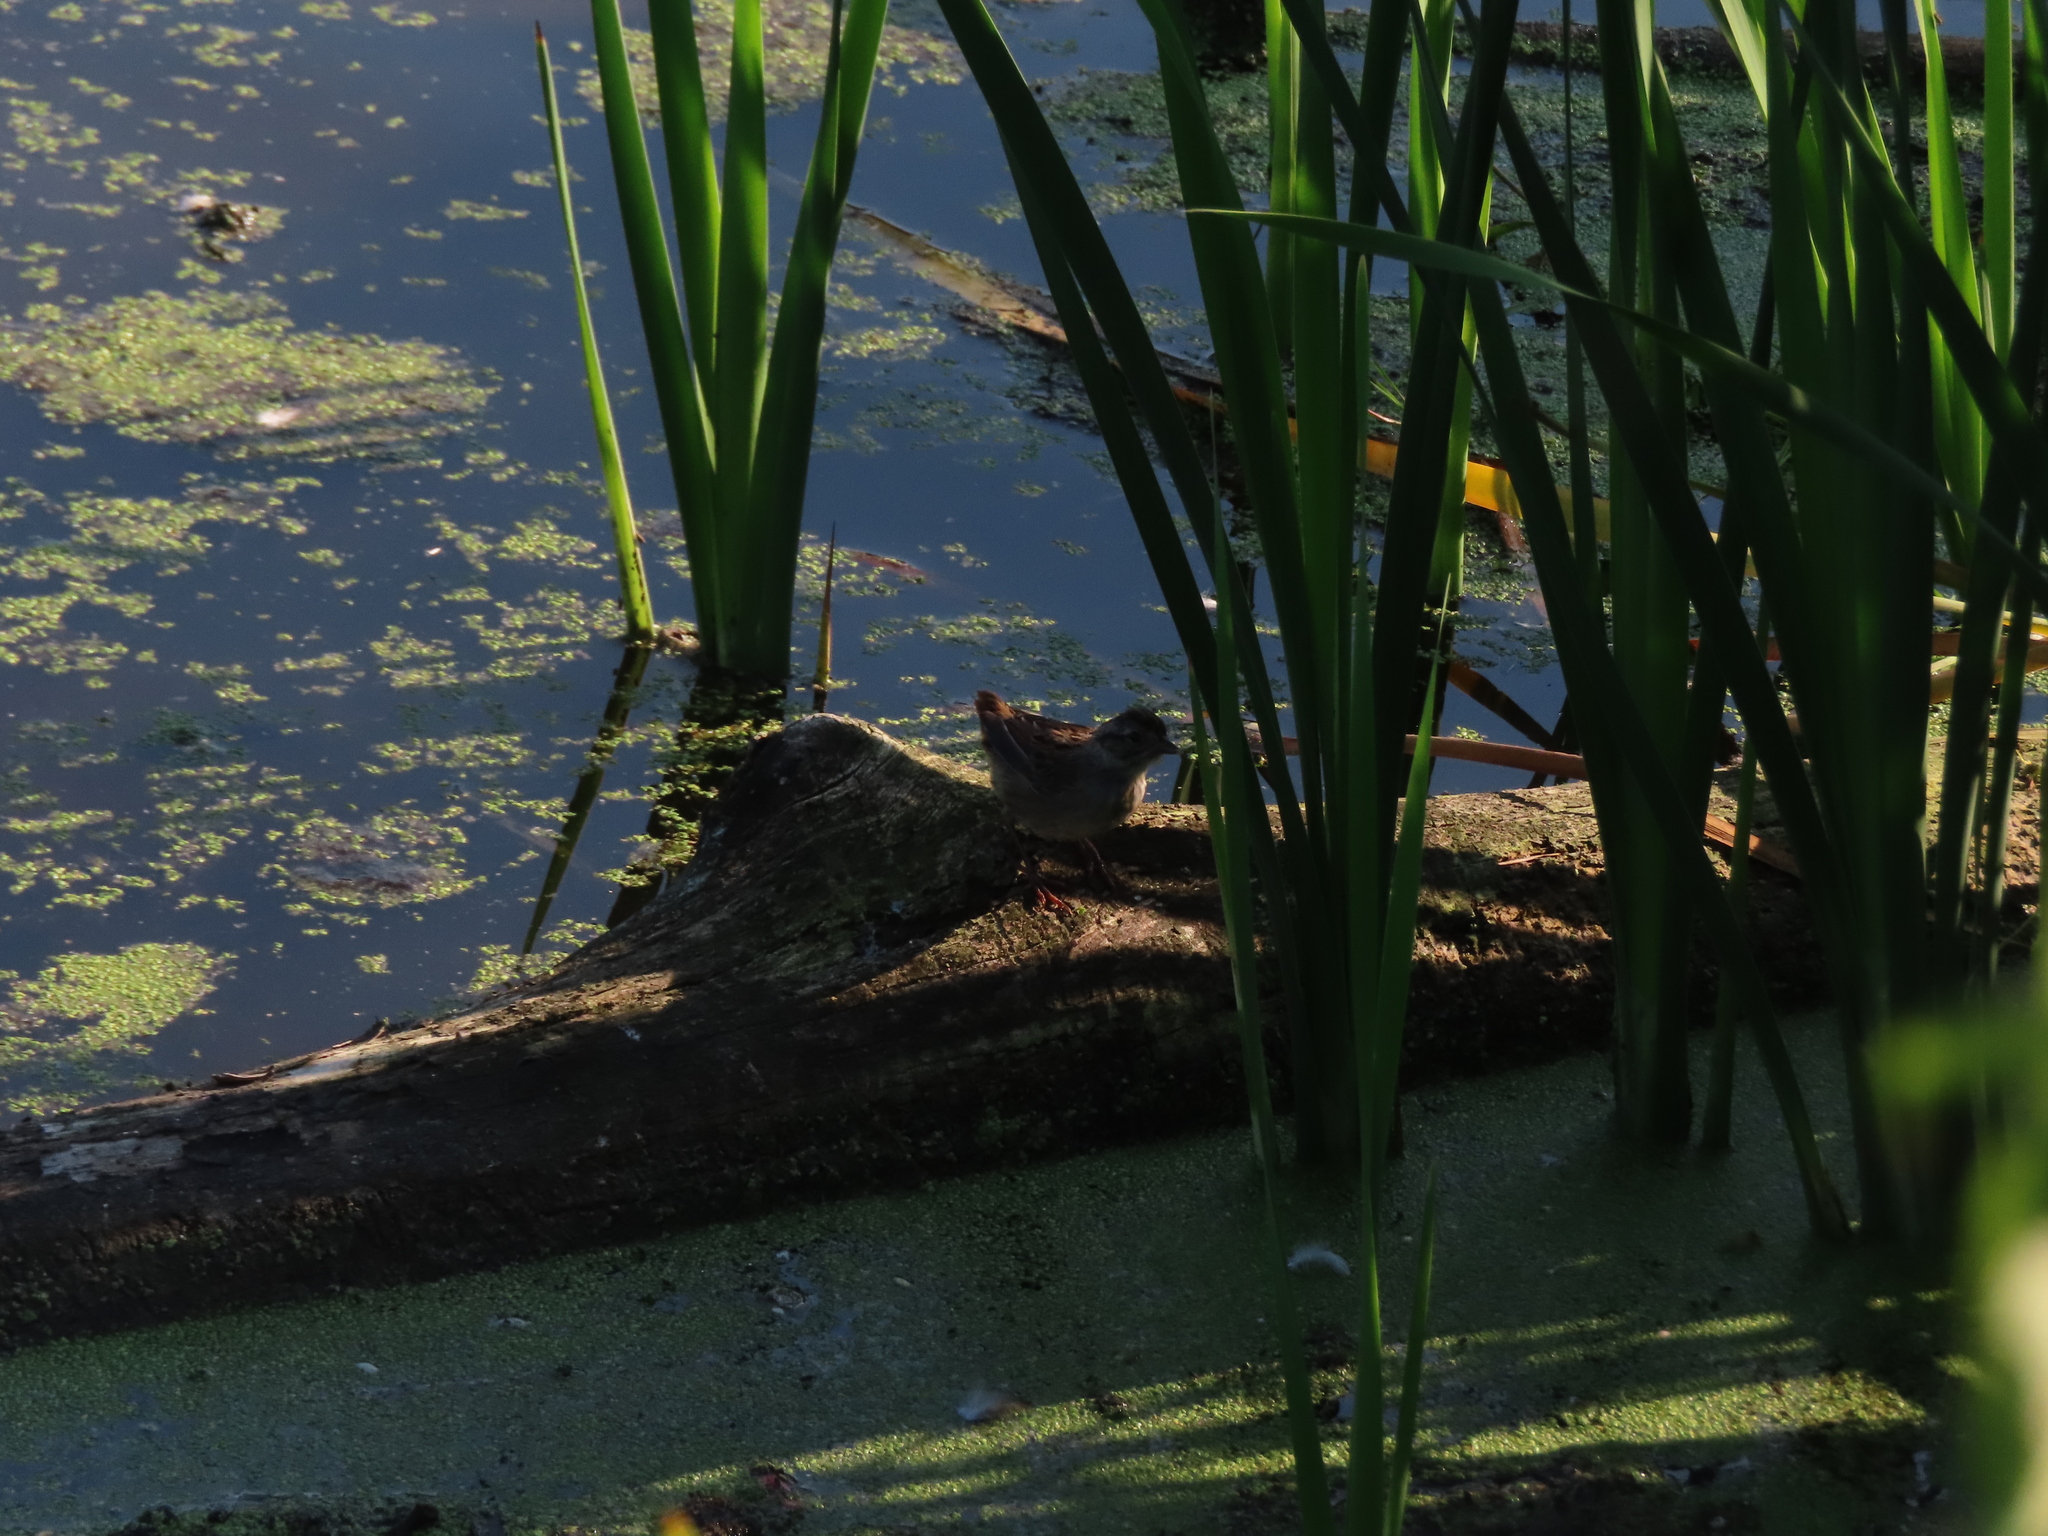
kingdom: Animalia
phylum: Chordata
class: Aves
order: Passeriformes
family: Passerellidae
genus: Melospiza
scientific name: Melospiza georgiana
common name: Swamp sparrow
